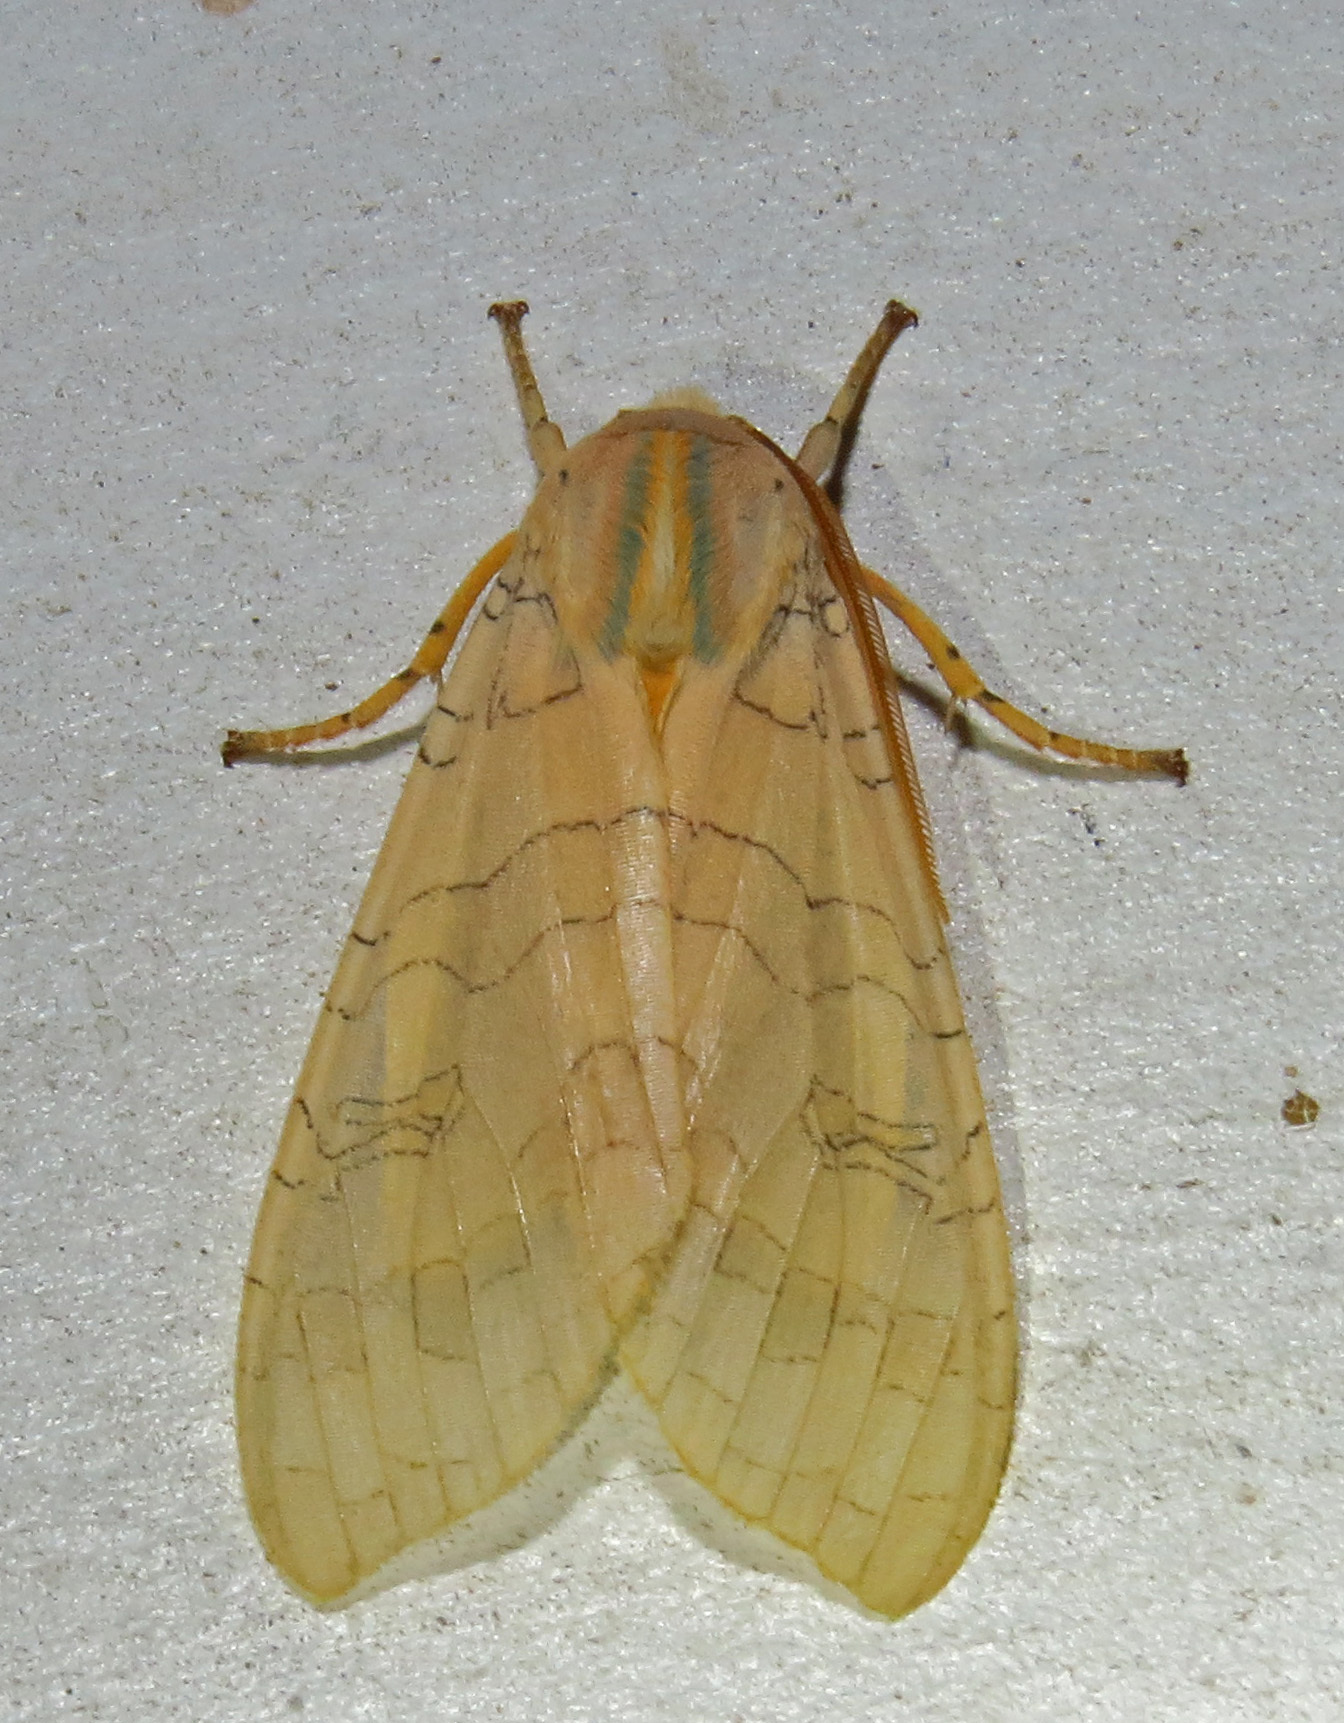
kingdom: Animalia
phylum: Arthropoda
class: Insecta
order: Lepidoptera
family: Erebidae
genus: Halysidota
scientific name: Halysidota
